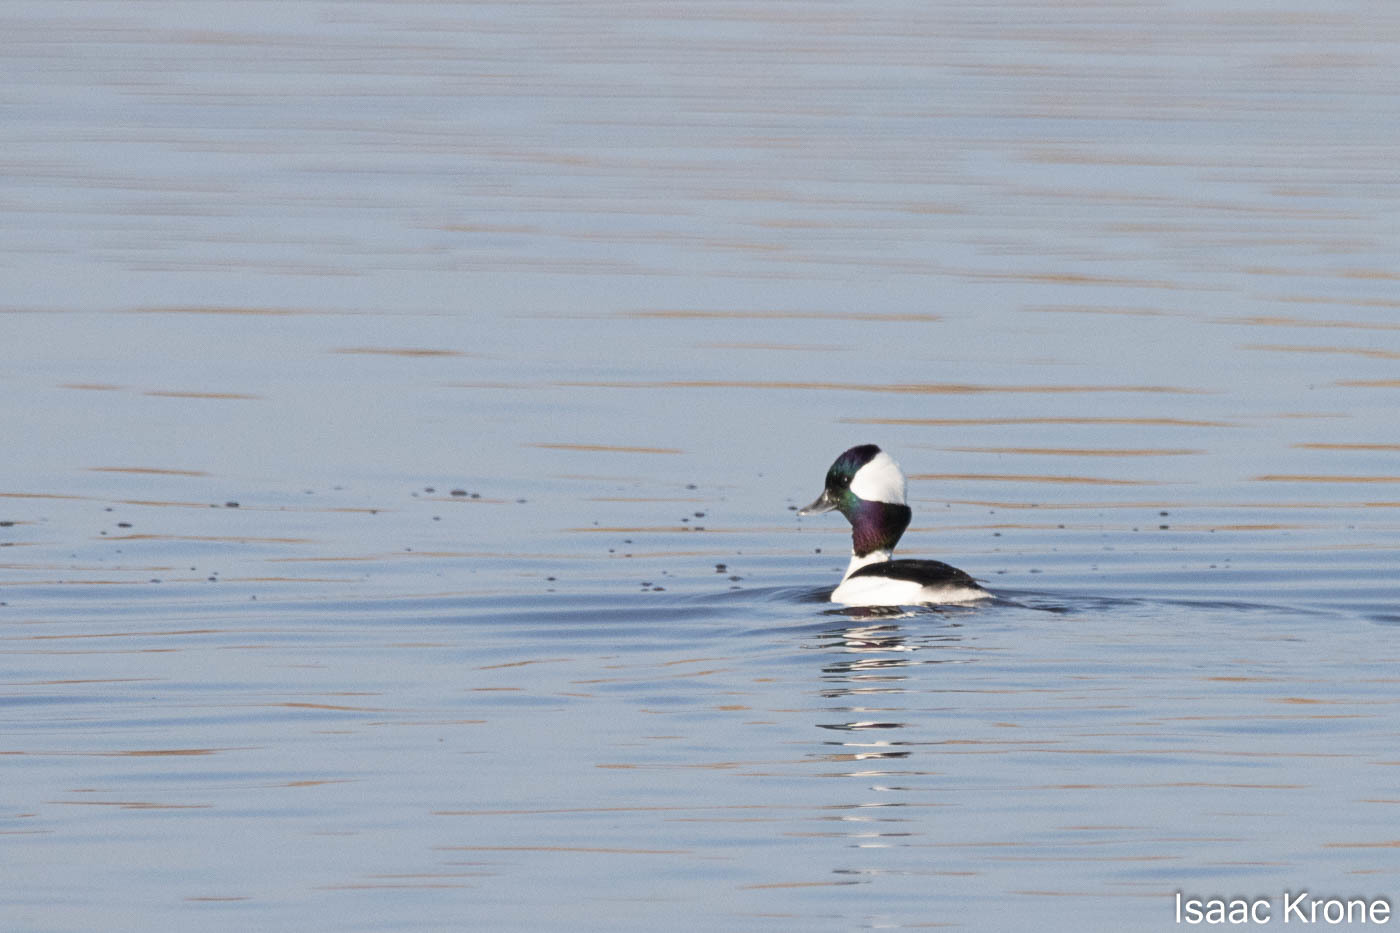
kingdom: Animalia
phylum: Chordata
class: Aves
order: Anseriformes
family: Anatidae
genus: Bucephala
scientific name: Bucephala albeola
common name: Bufflehead
